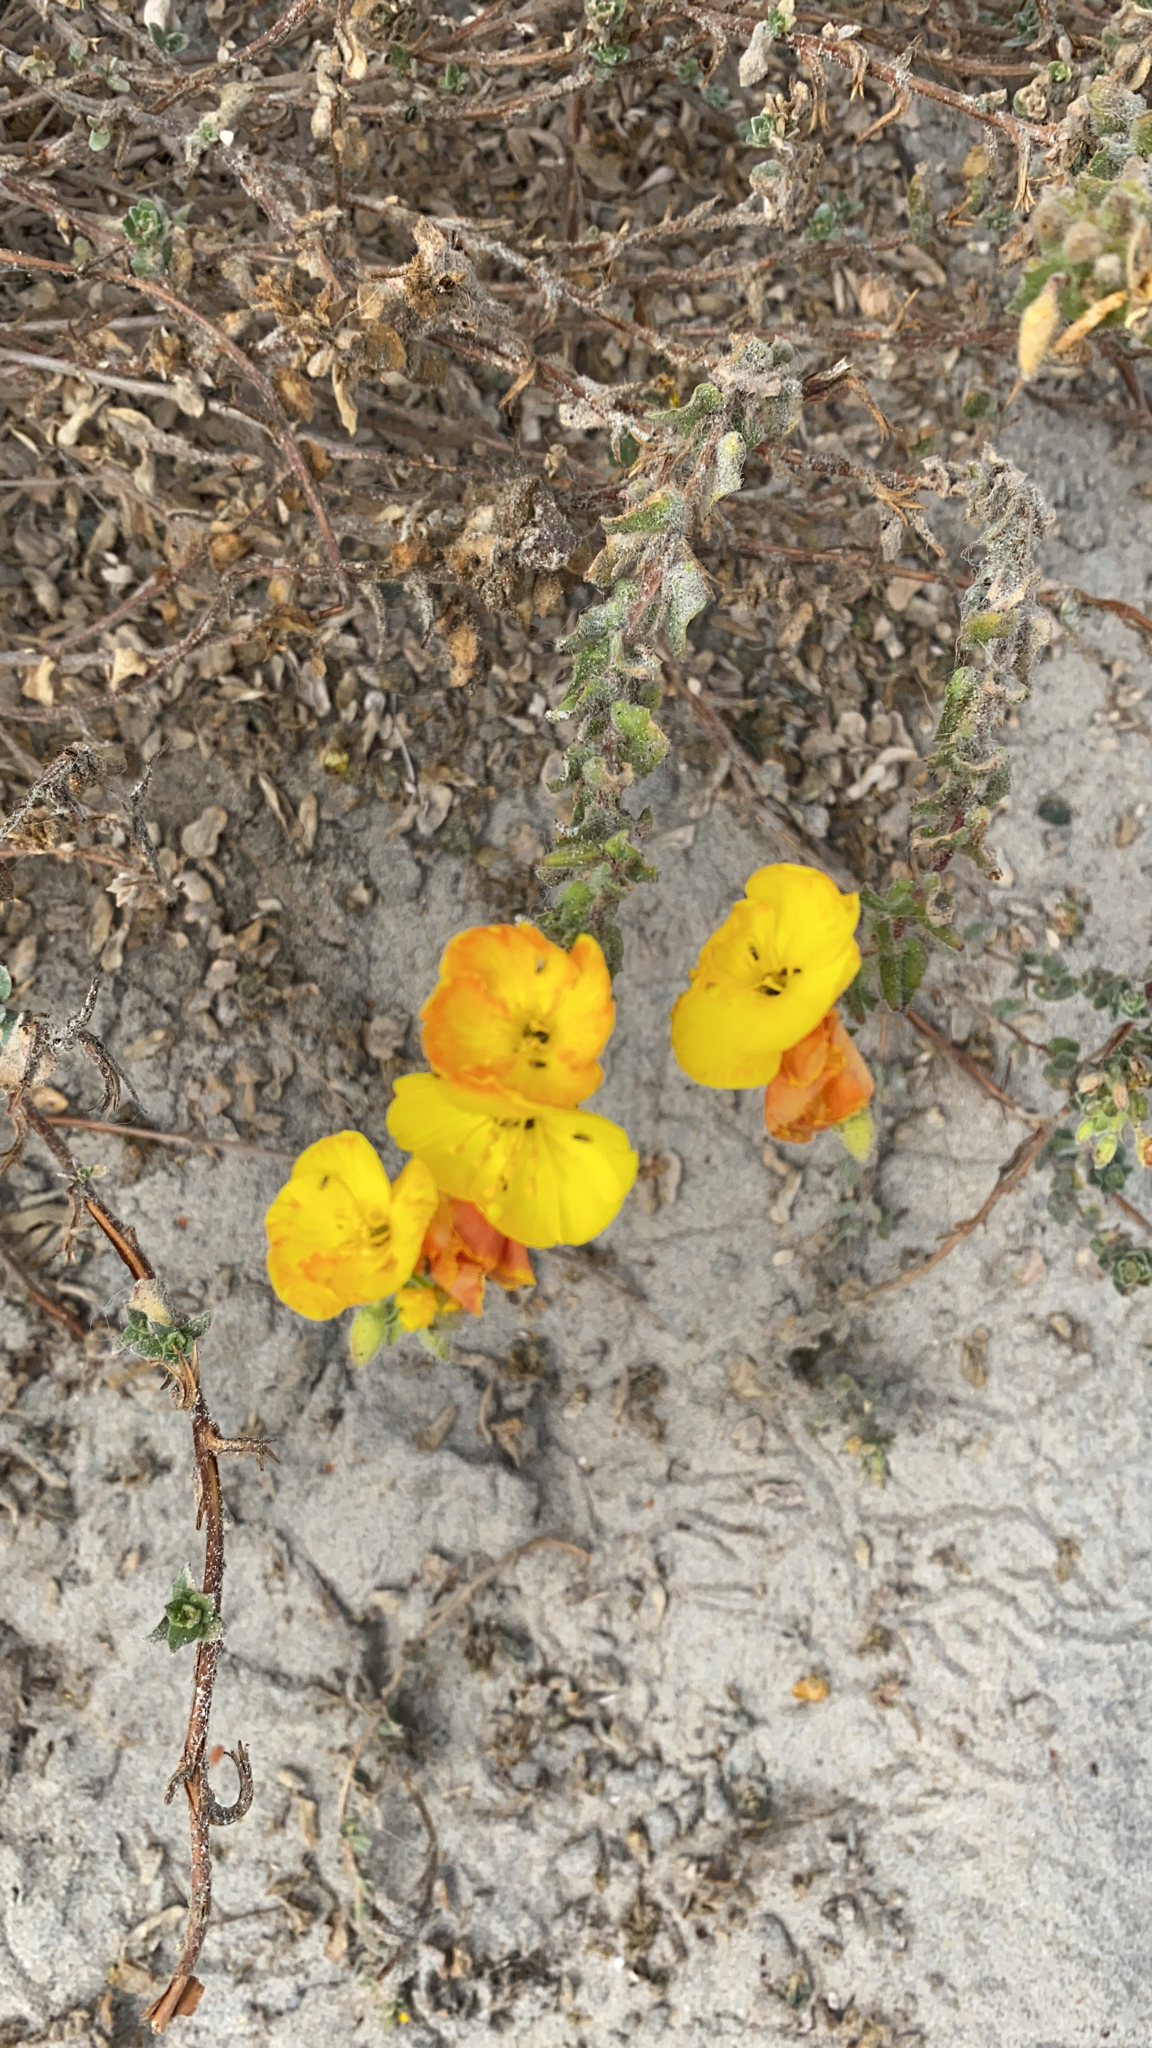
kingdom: Plantae
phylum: Tracheophyta
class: Magnoliopsida
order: Myrtales
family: Onagraceae
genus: Camissoniopsis
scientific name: Camissoniopsis cheiranthifolia
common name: Beach suncup
